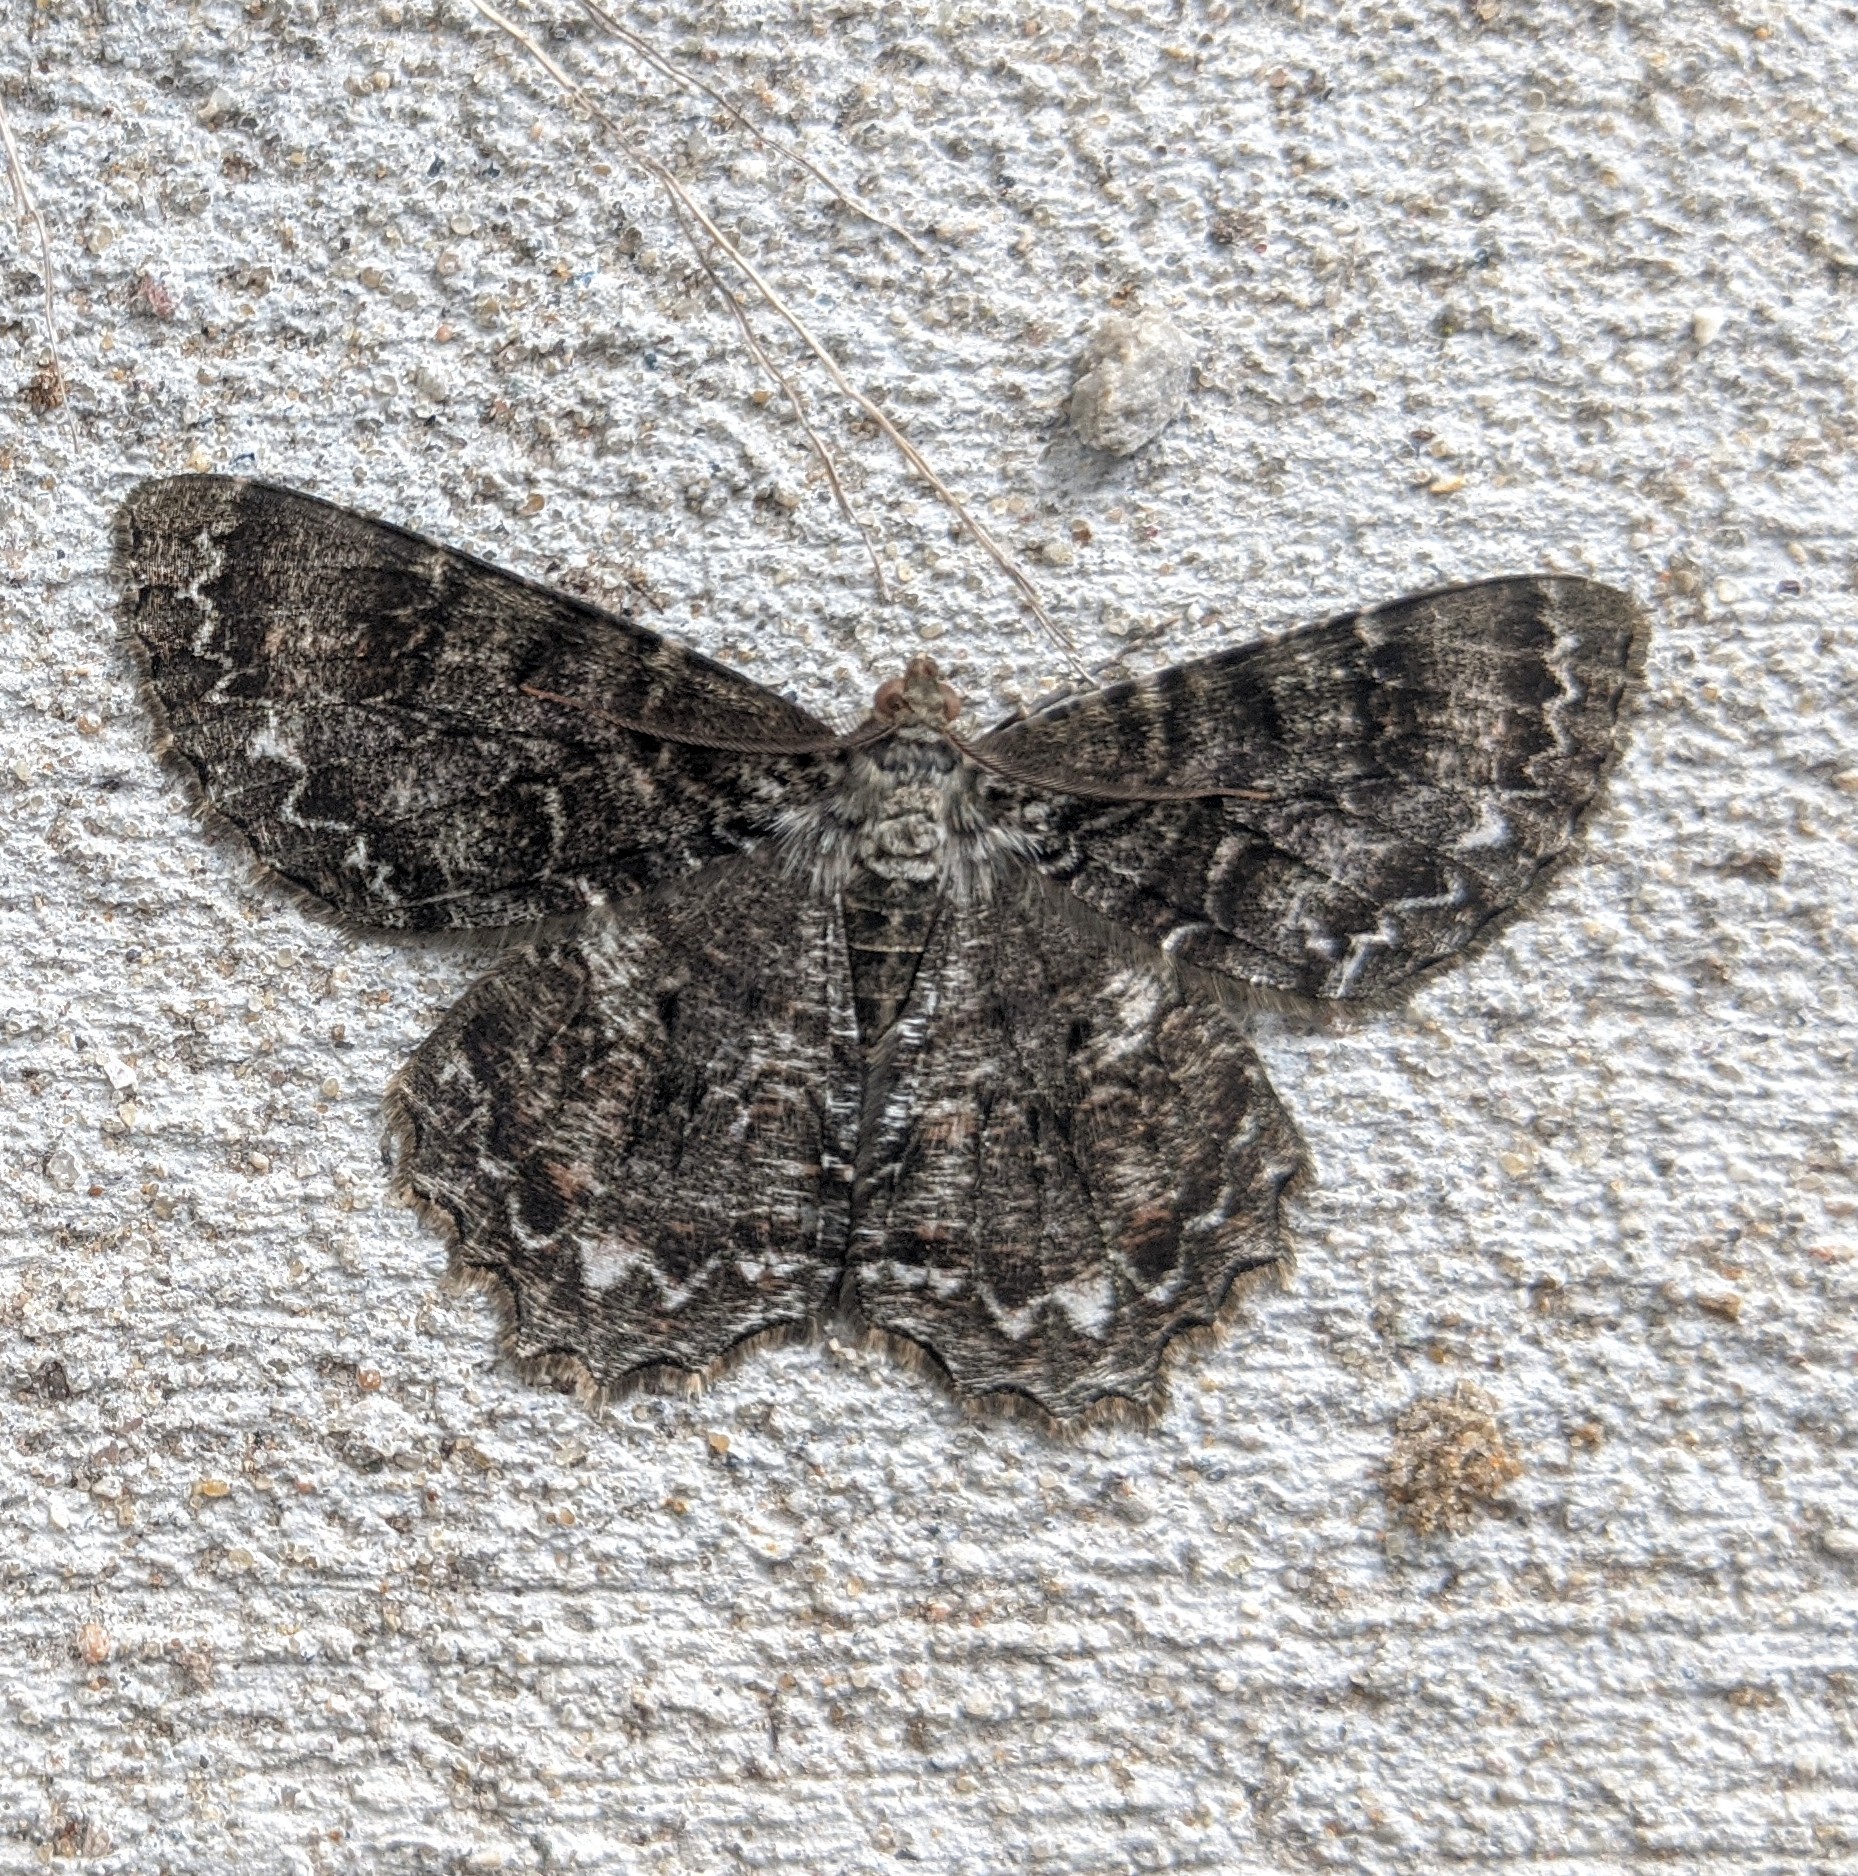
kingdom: Animalia
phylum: Arthropoda
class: Insecta
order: Lepidoptera
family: Geometridae
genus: Epimecis
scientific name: Epimecis hortaria
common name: Tulip-tree beauty
